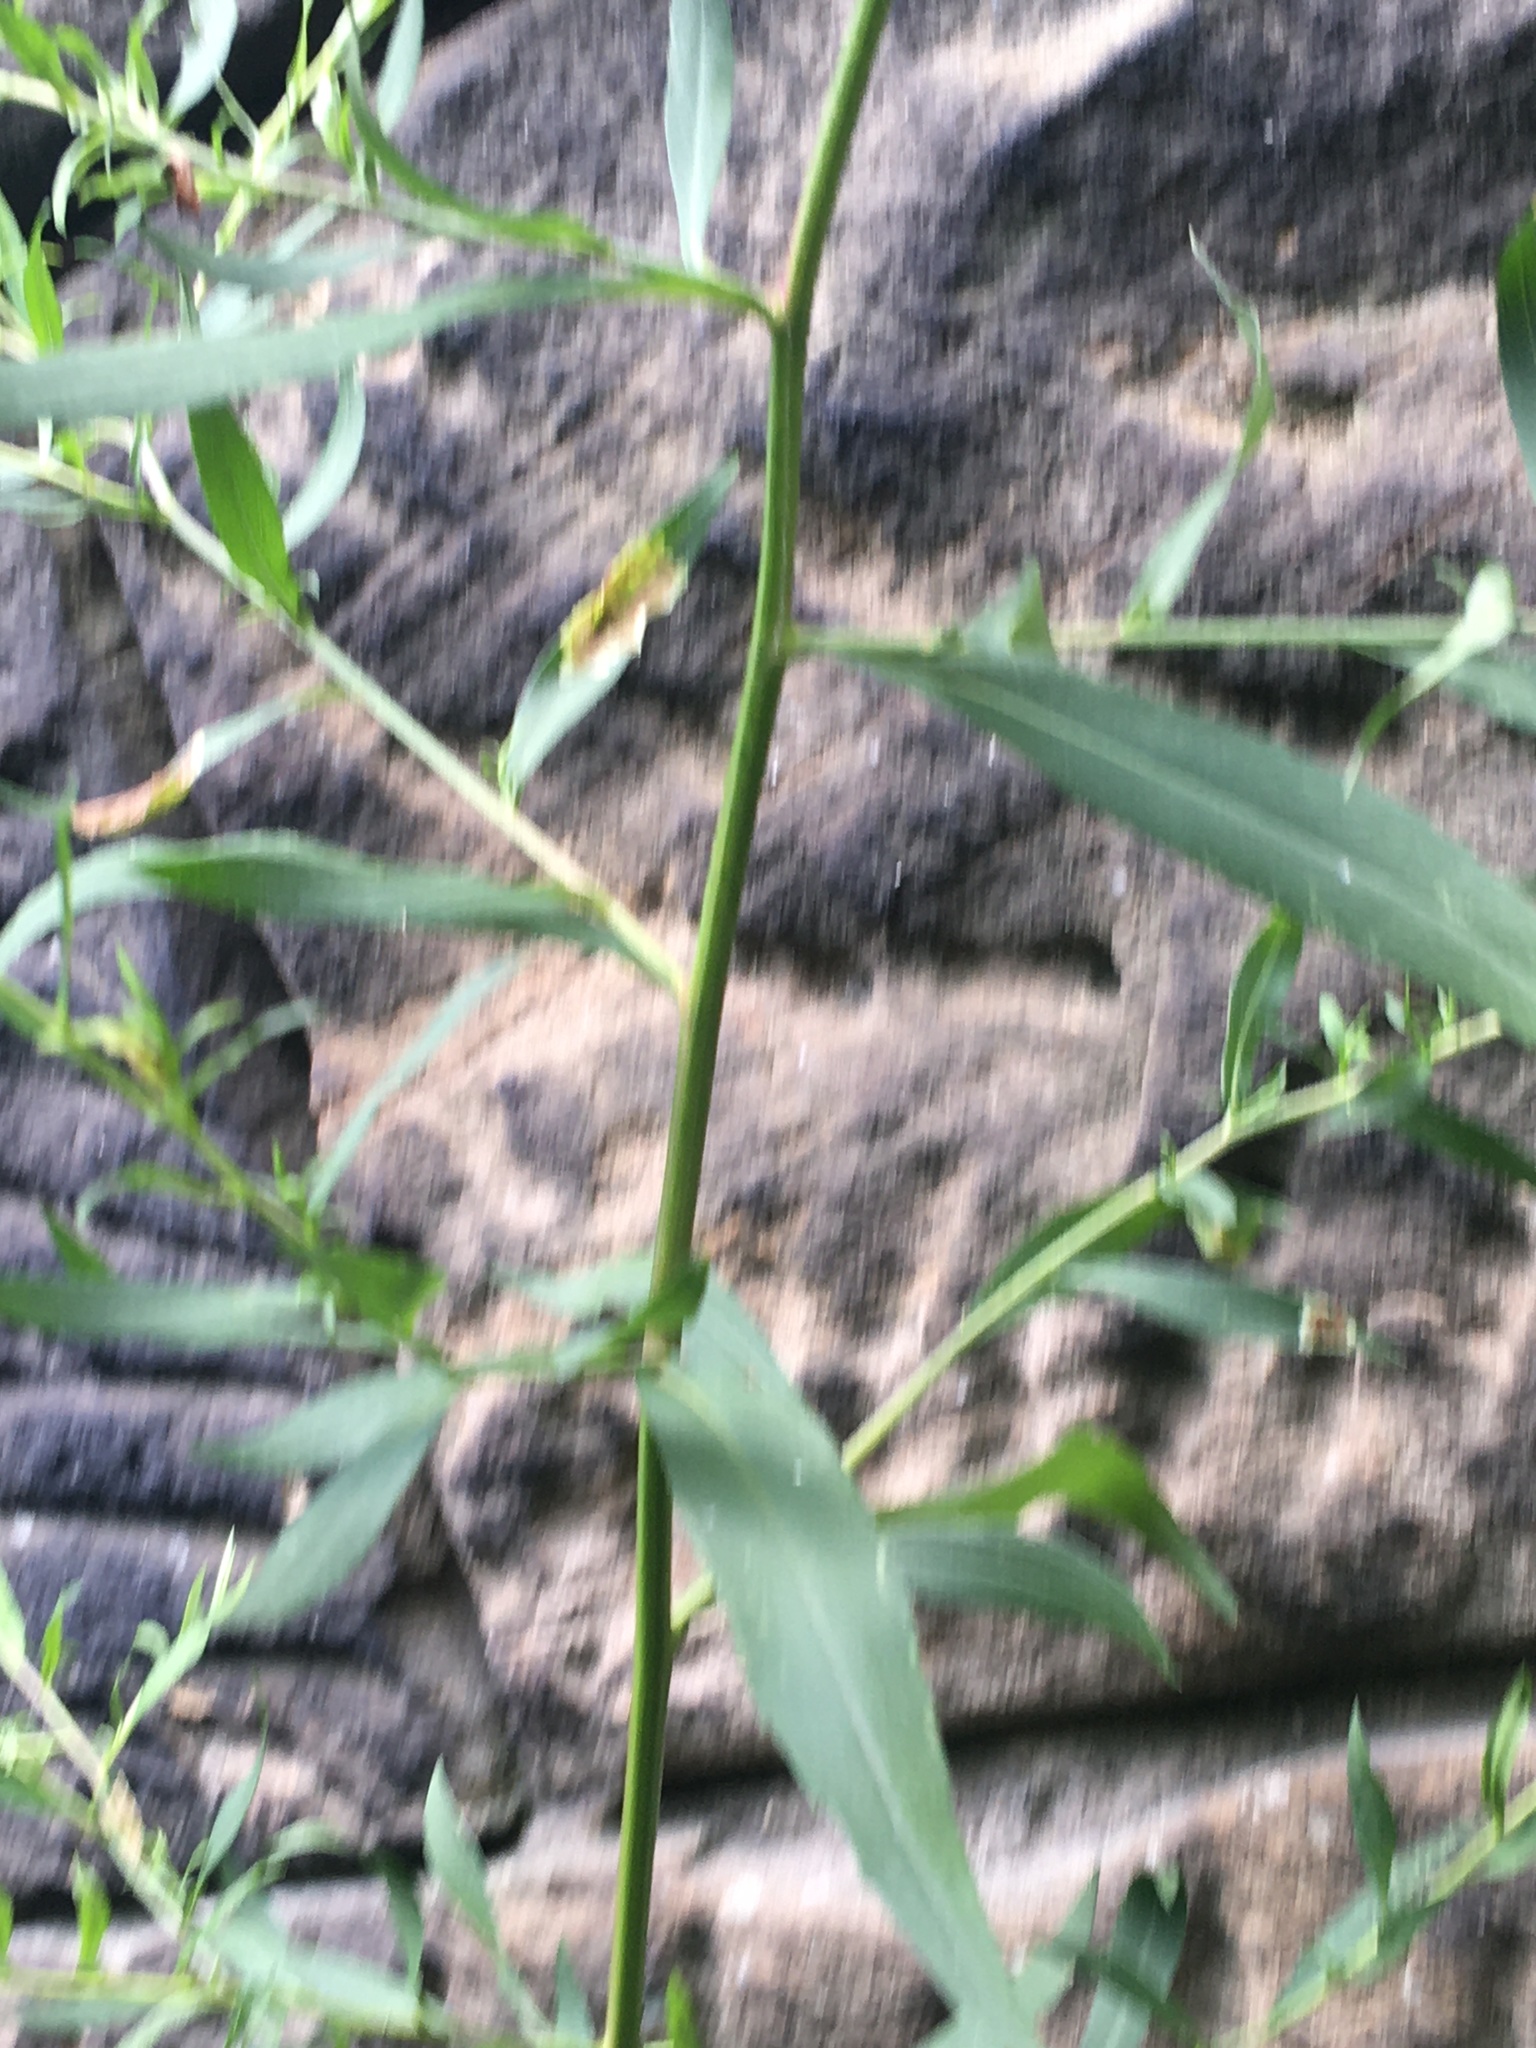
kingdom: Plantae
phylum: Tracheophyta
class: Magnoliopsida
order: Asterales
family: Asteraceae
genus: Symphyotrichum
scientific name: Symphyotrichum lanceolatum
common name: Panicled aster
